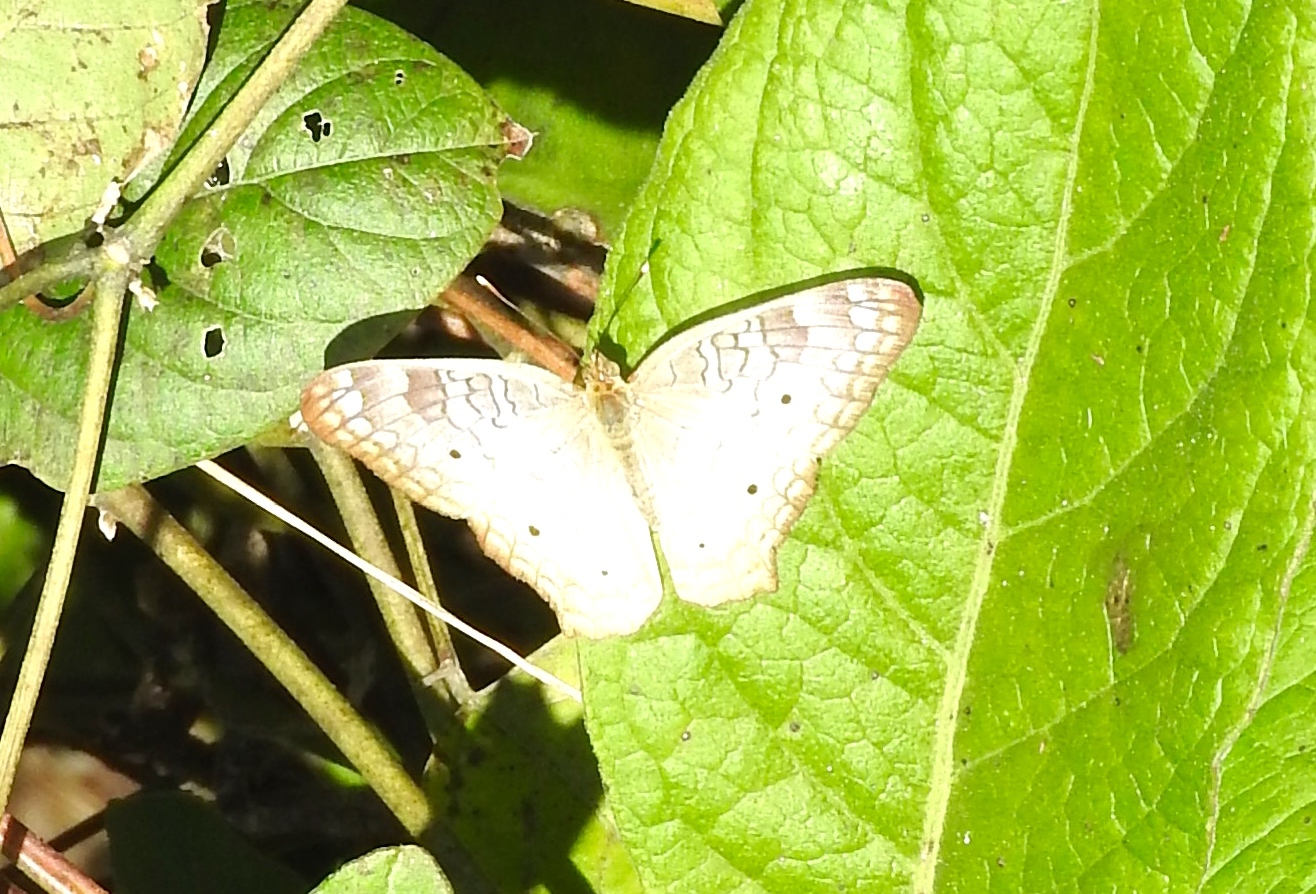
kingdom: Animalia
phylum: Arthropoda
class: Insecta
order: Lepidoptera
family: Nymphalidae
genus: Anartia
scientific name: Anartia jatrophae
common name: White peacock
